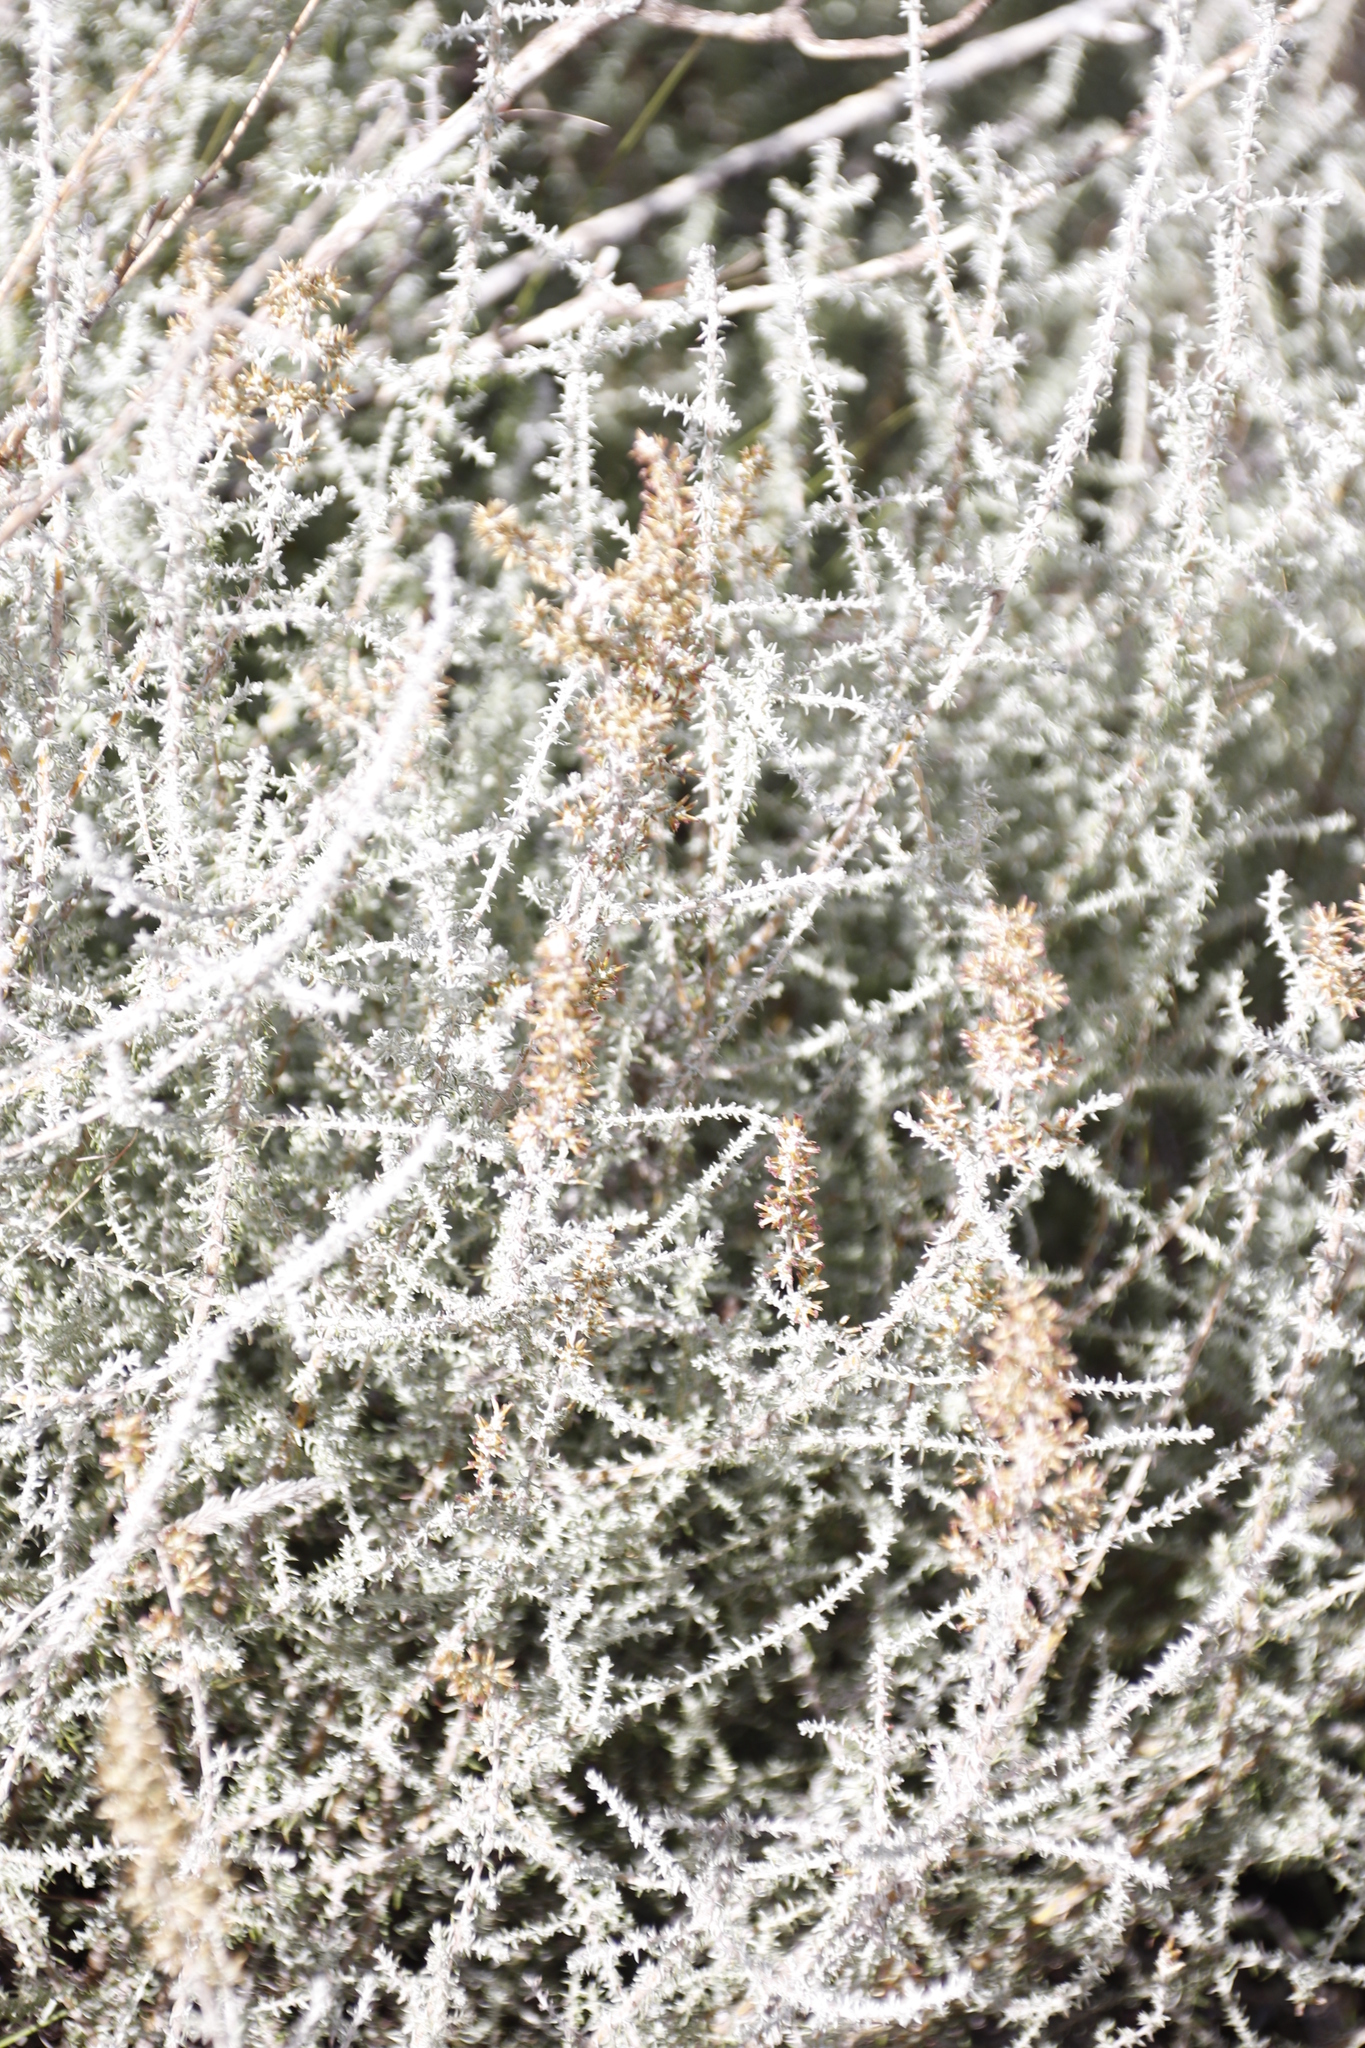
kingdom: Plantae
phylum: Tracheophyta
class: Magnoliopsida
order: Asterales
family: Asteraceae
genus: Seriphium
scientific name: Seriphium
